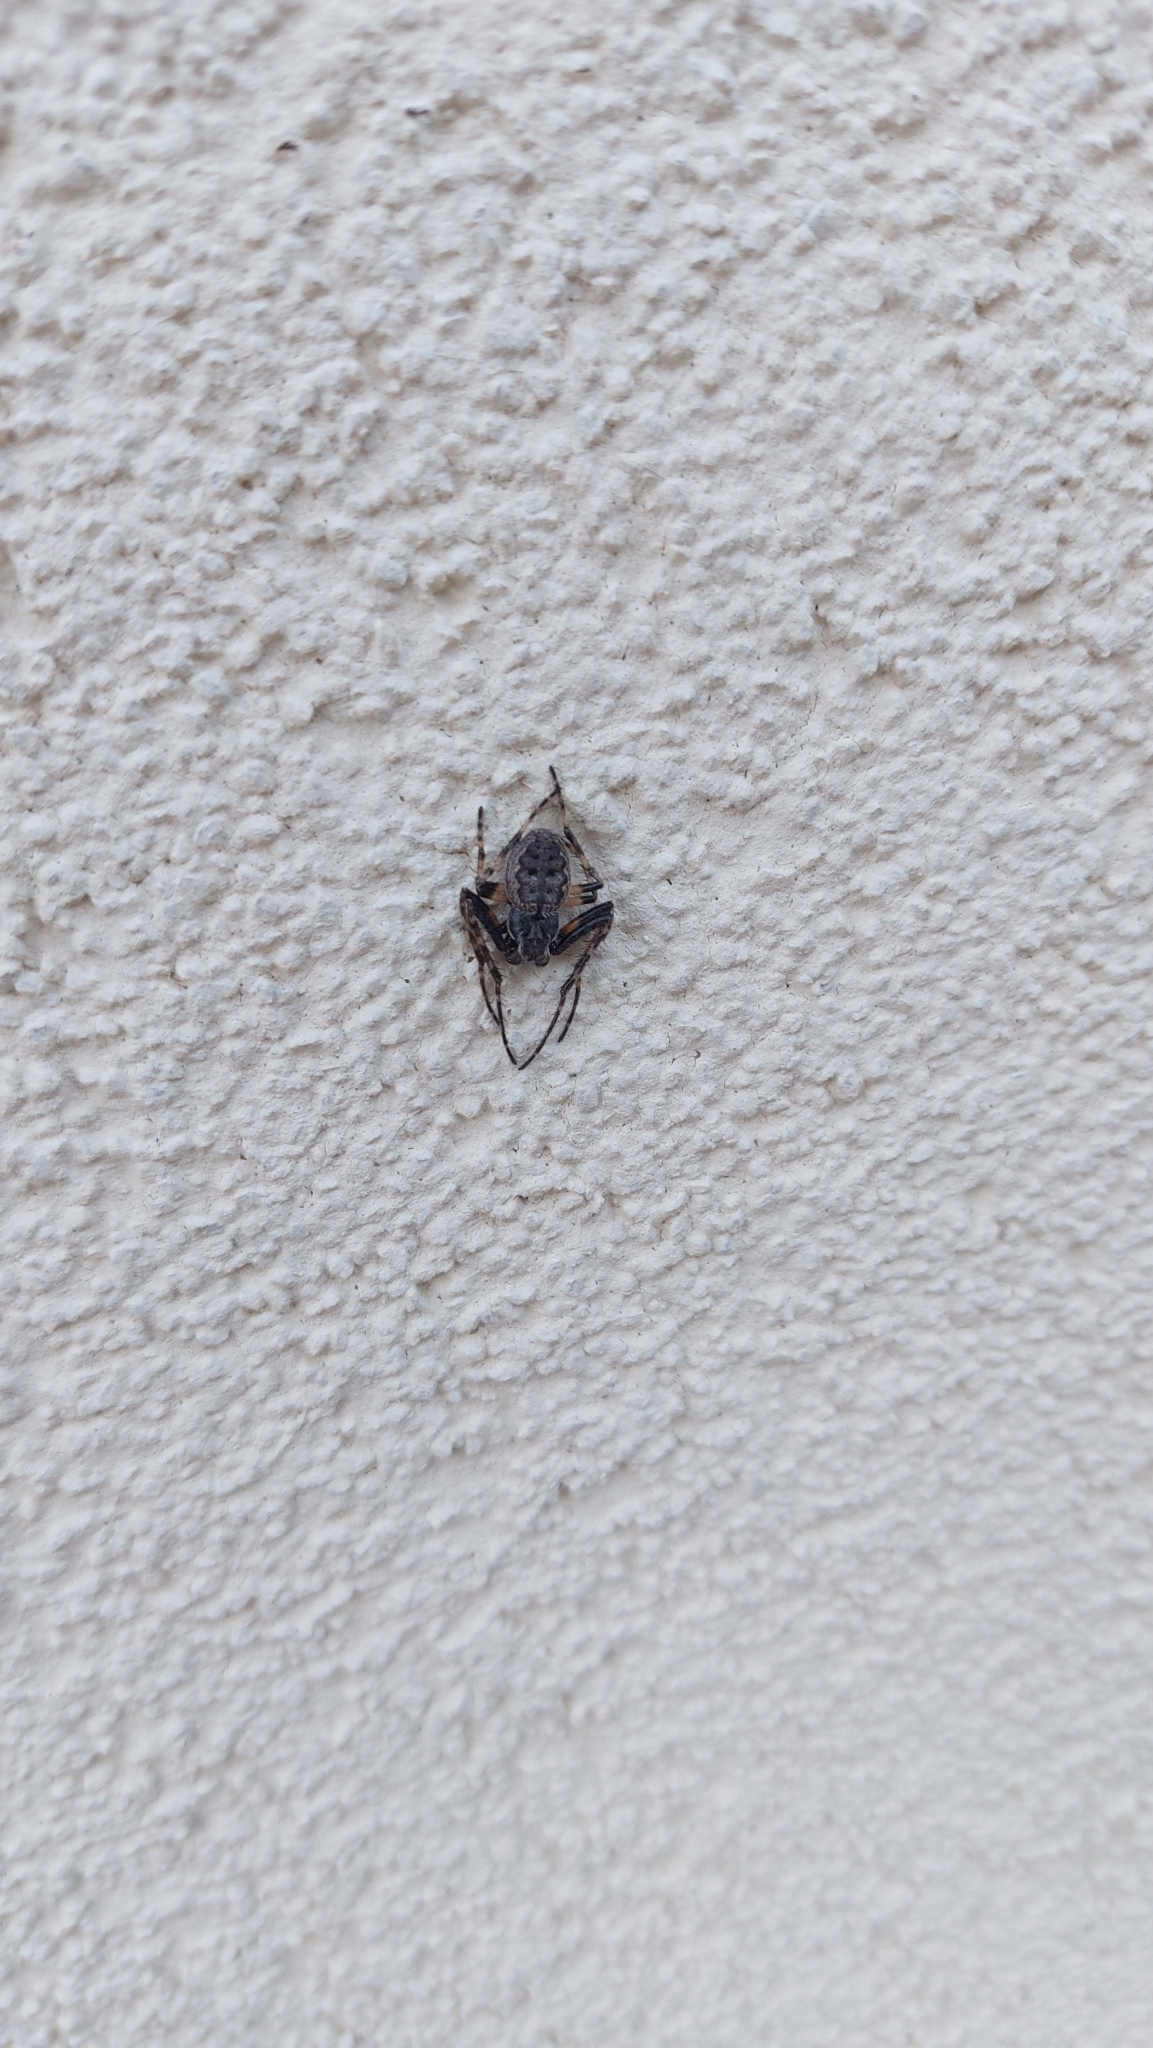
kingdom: Animalia
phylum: Arthropoda
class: Arachnida
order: Araneae
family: Araneidae
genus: Nuctenea
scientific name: Nuctenea umbratica
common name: Toad spider
